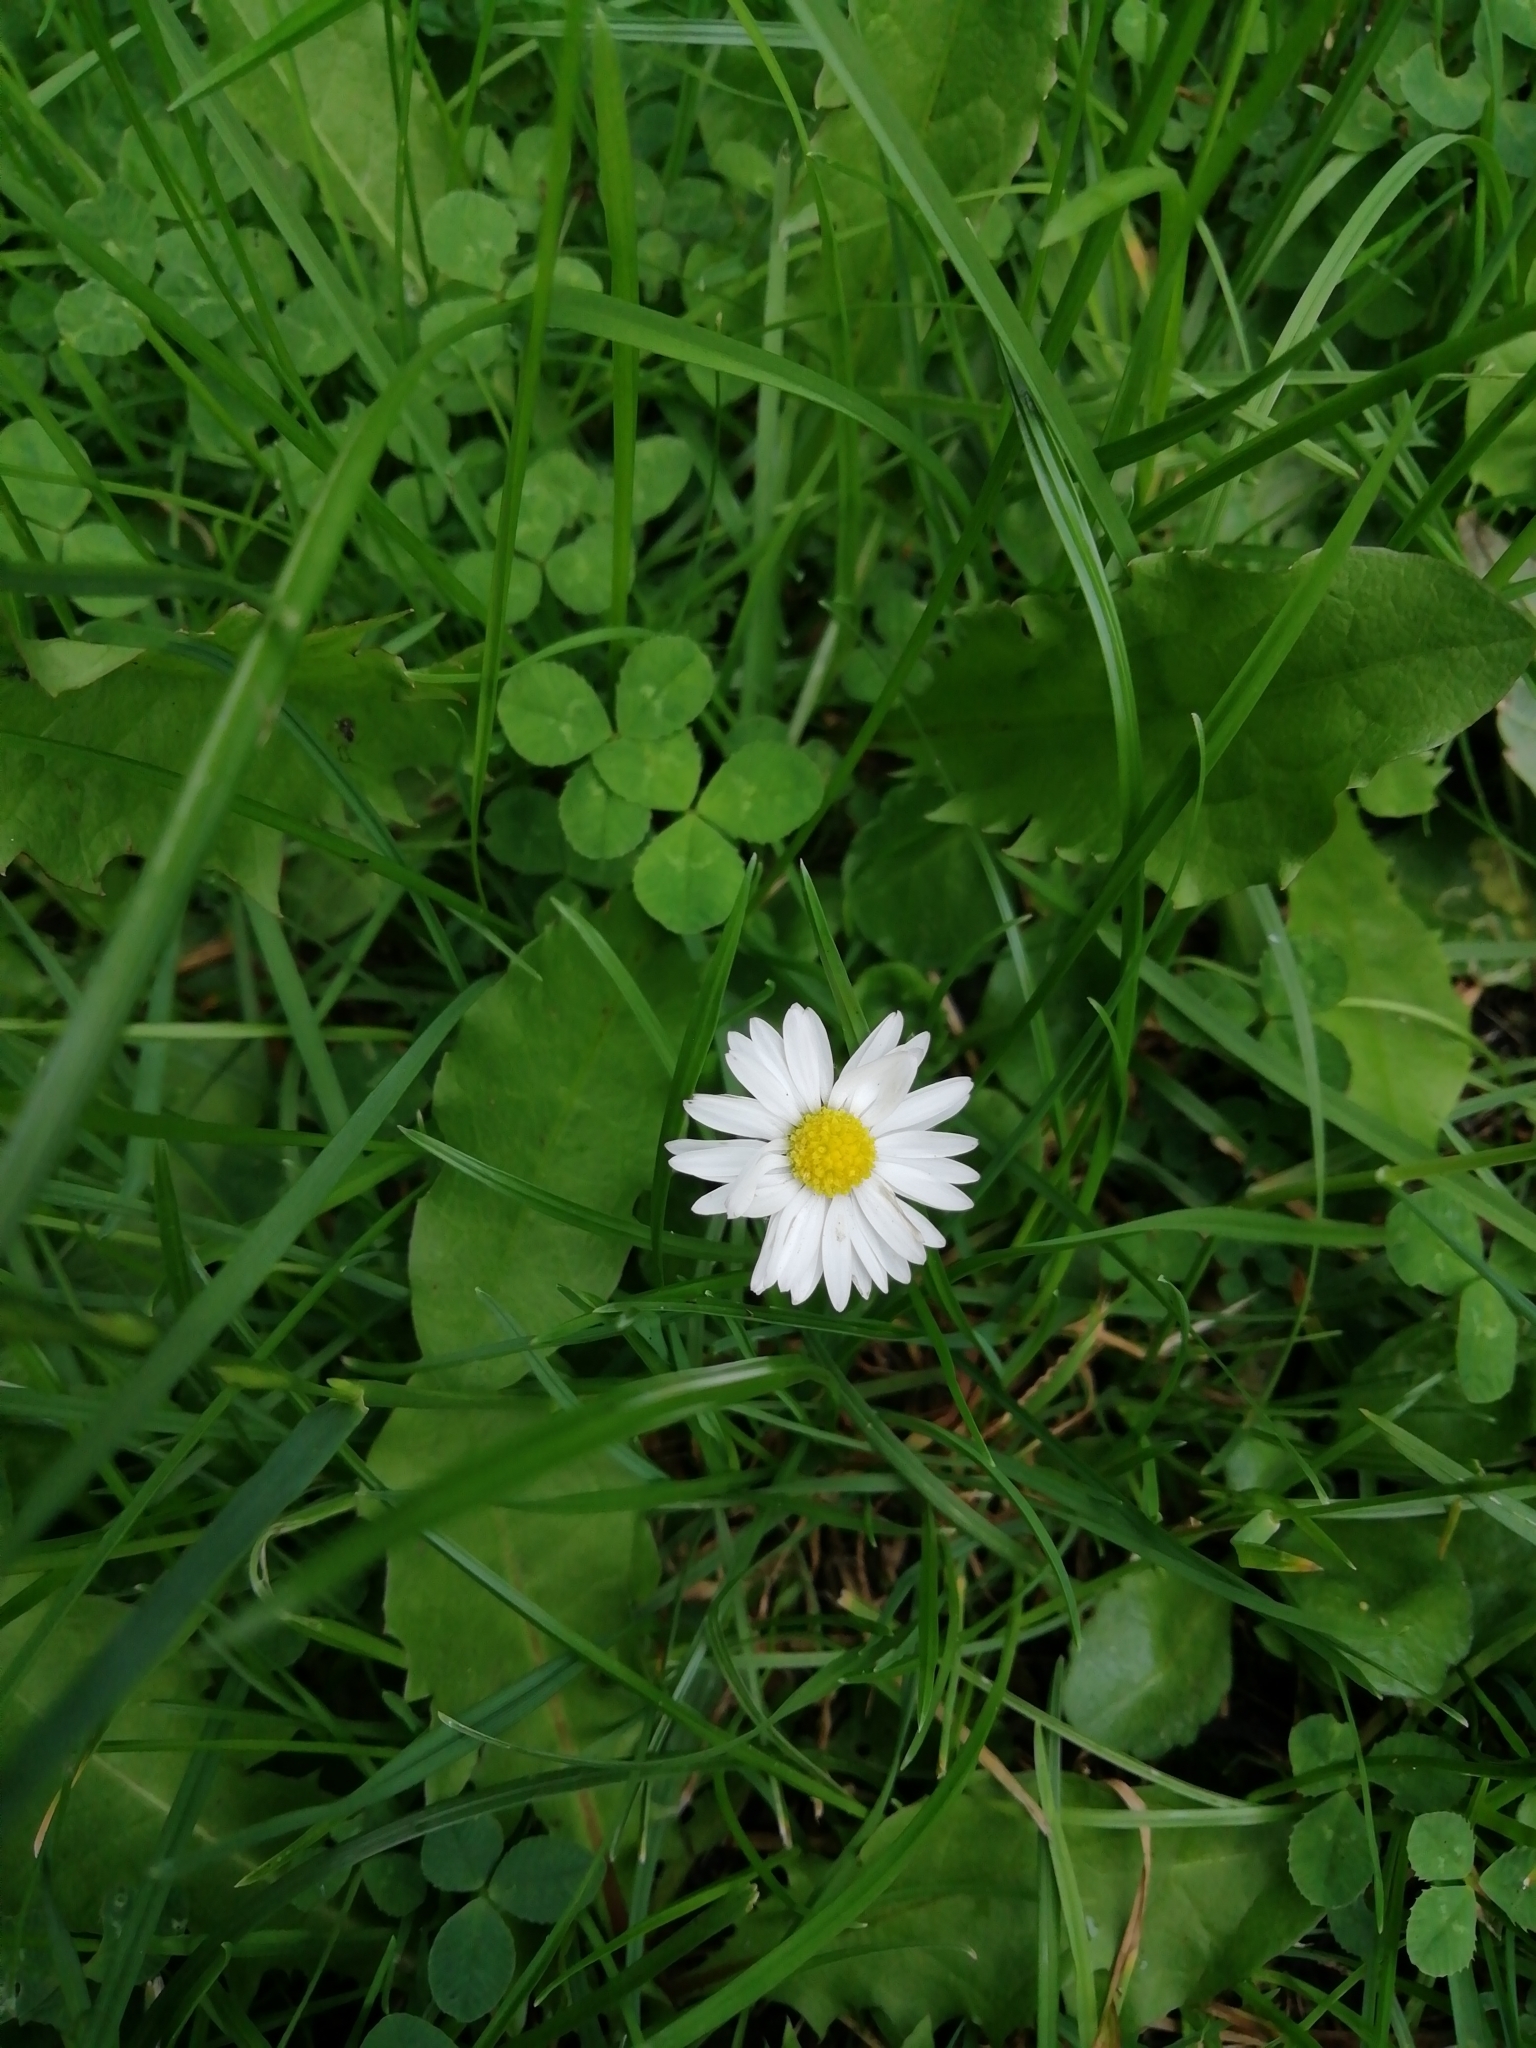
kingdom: Plantae
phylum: Tracheophyta
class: Magnoliopsida
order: Asterales
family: Asteraceae
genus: Bellis
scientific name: Bellis perennis
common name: Lawndaisy
